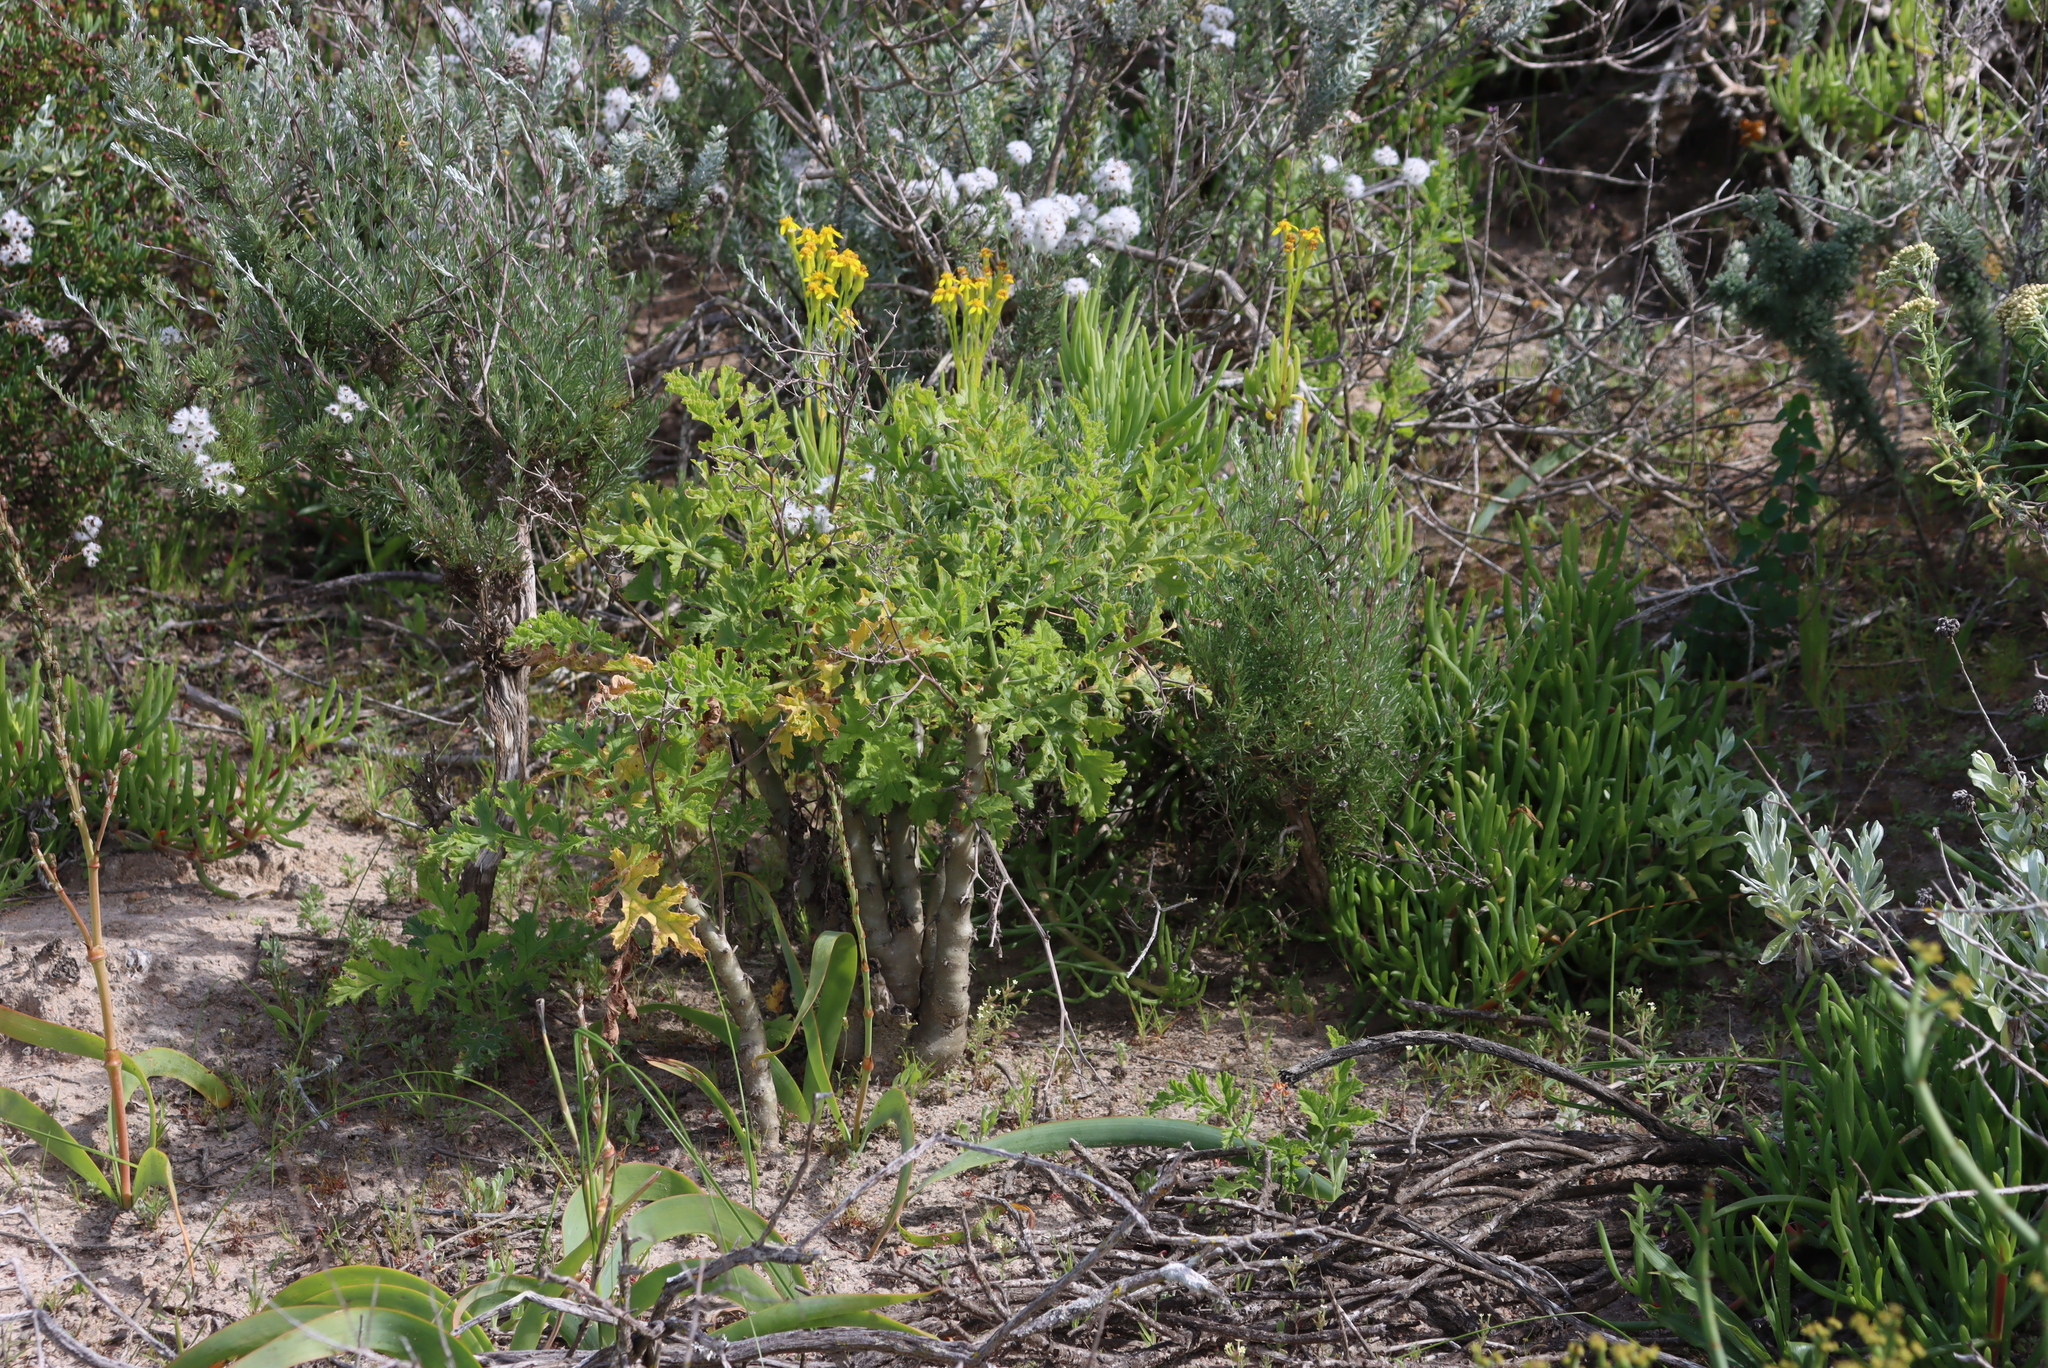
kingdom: Plantae
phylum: Tracheophyta
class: Magnoliopsida
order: Geraniales
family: Geraniaceae
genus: Pelargonium
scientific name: Pelargonium carnosum
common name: Fleshy-stalk pelargonium
